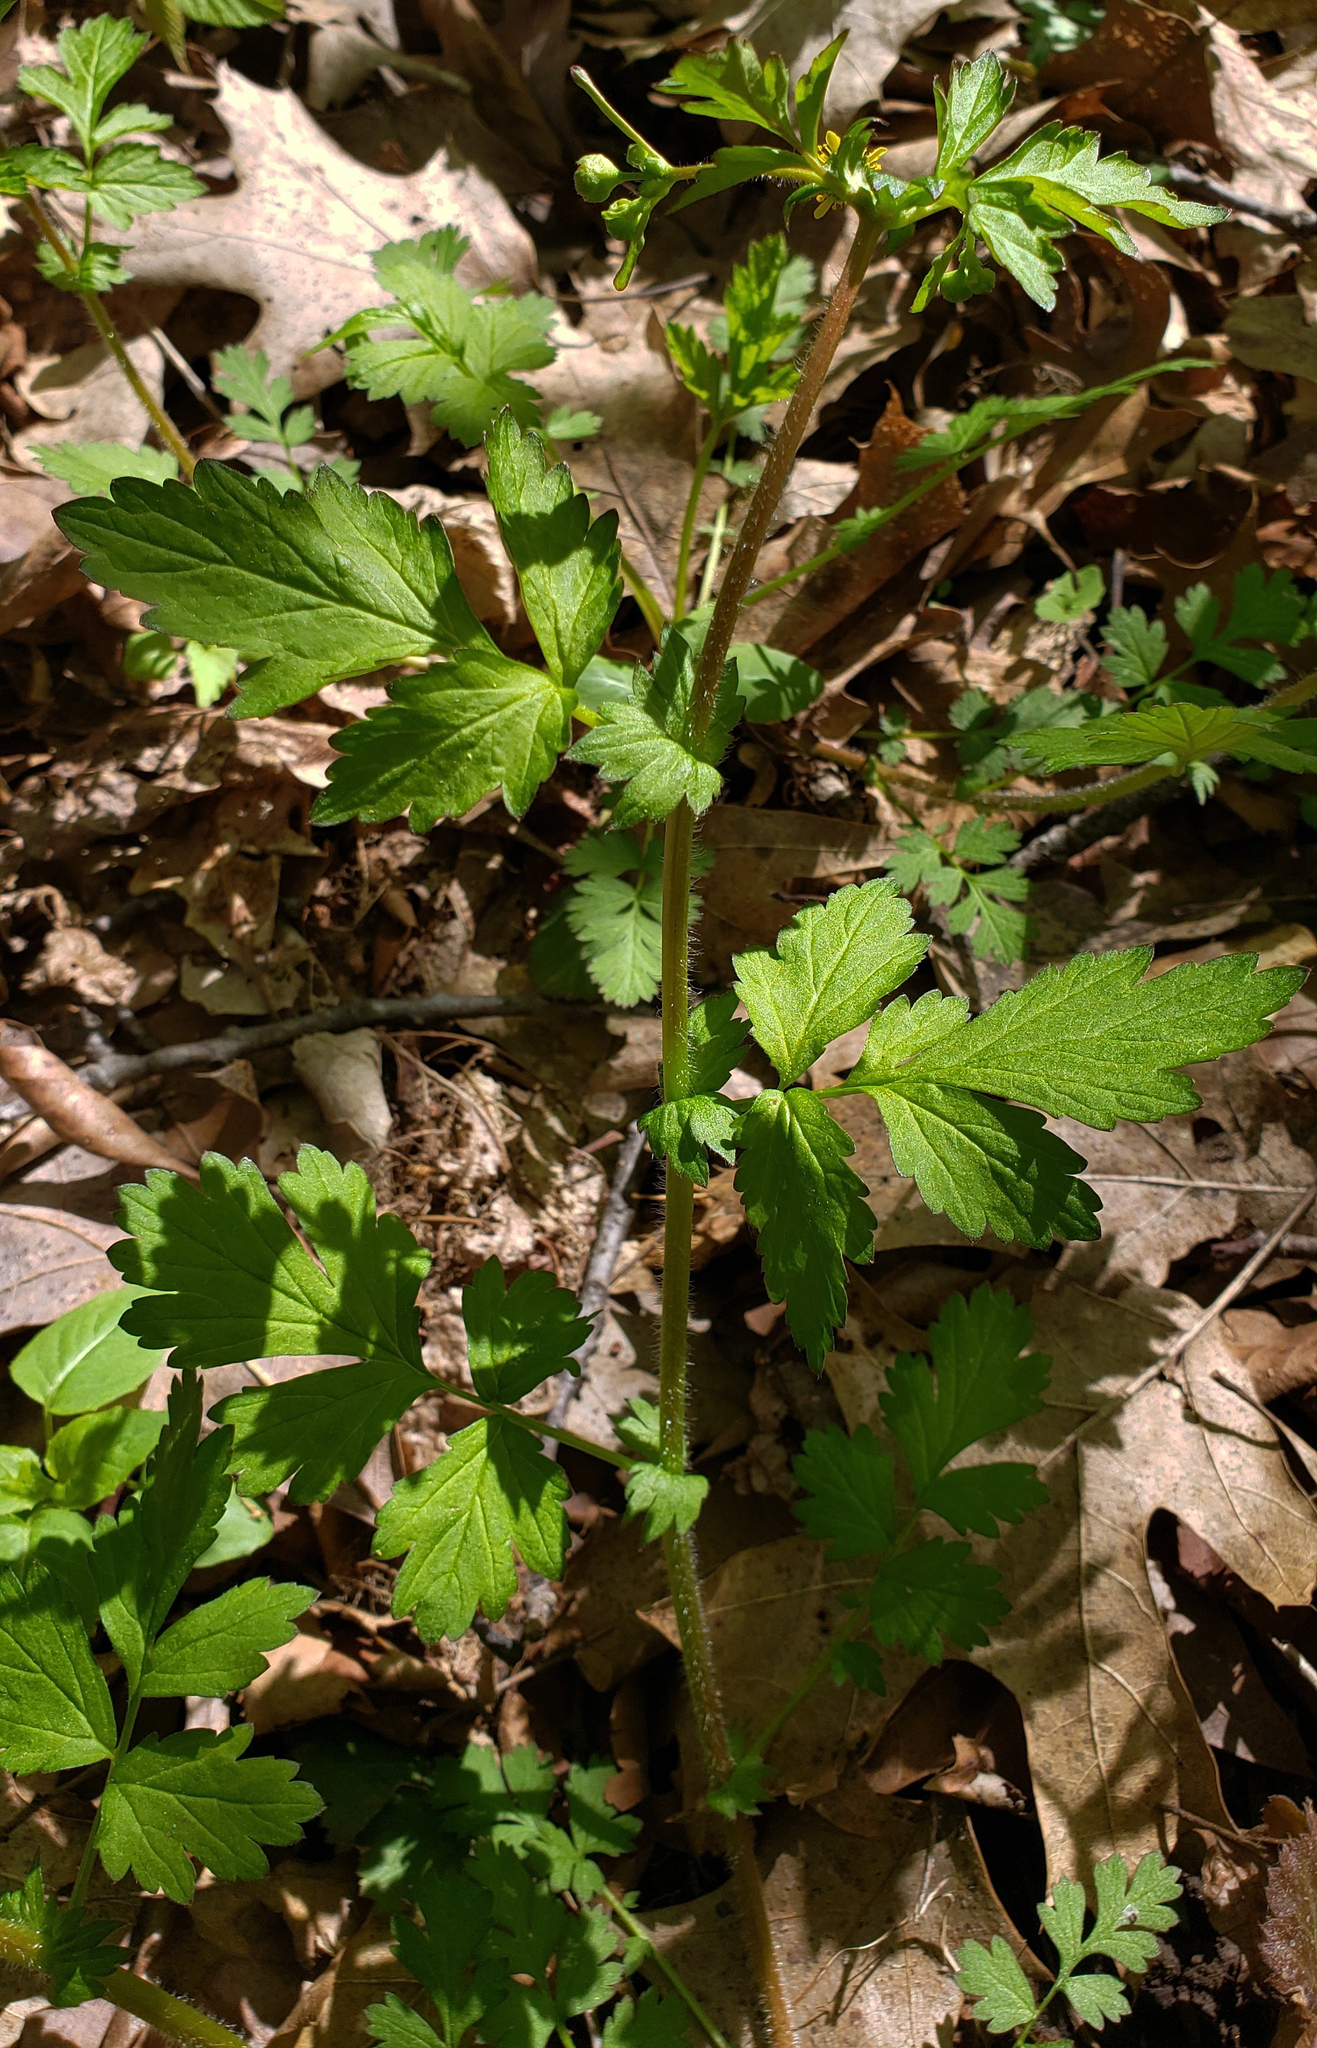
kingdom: Plantae
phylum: Tracheophyta
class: Magnoliopsida
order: Rosales
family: Rosaceae
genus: Geum
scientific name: Geum vernum
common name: Spring avens
